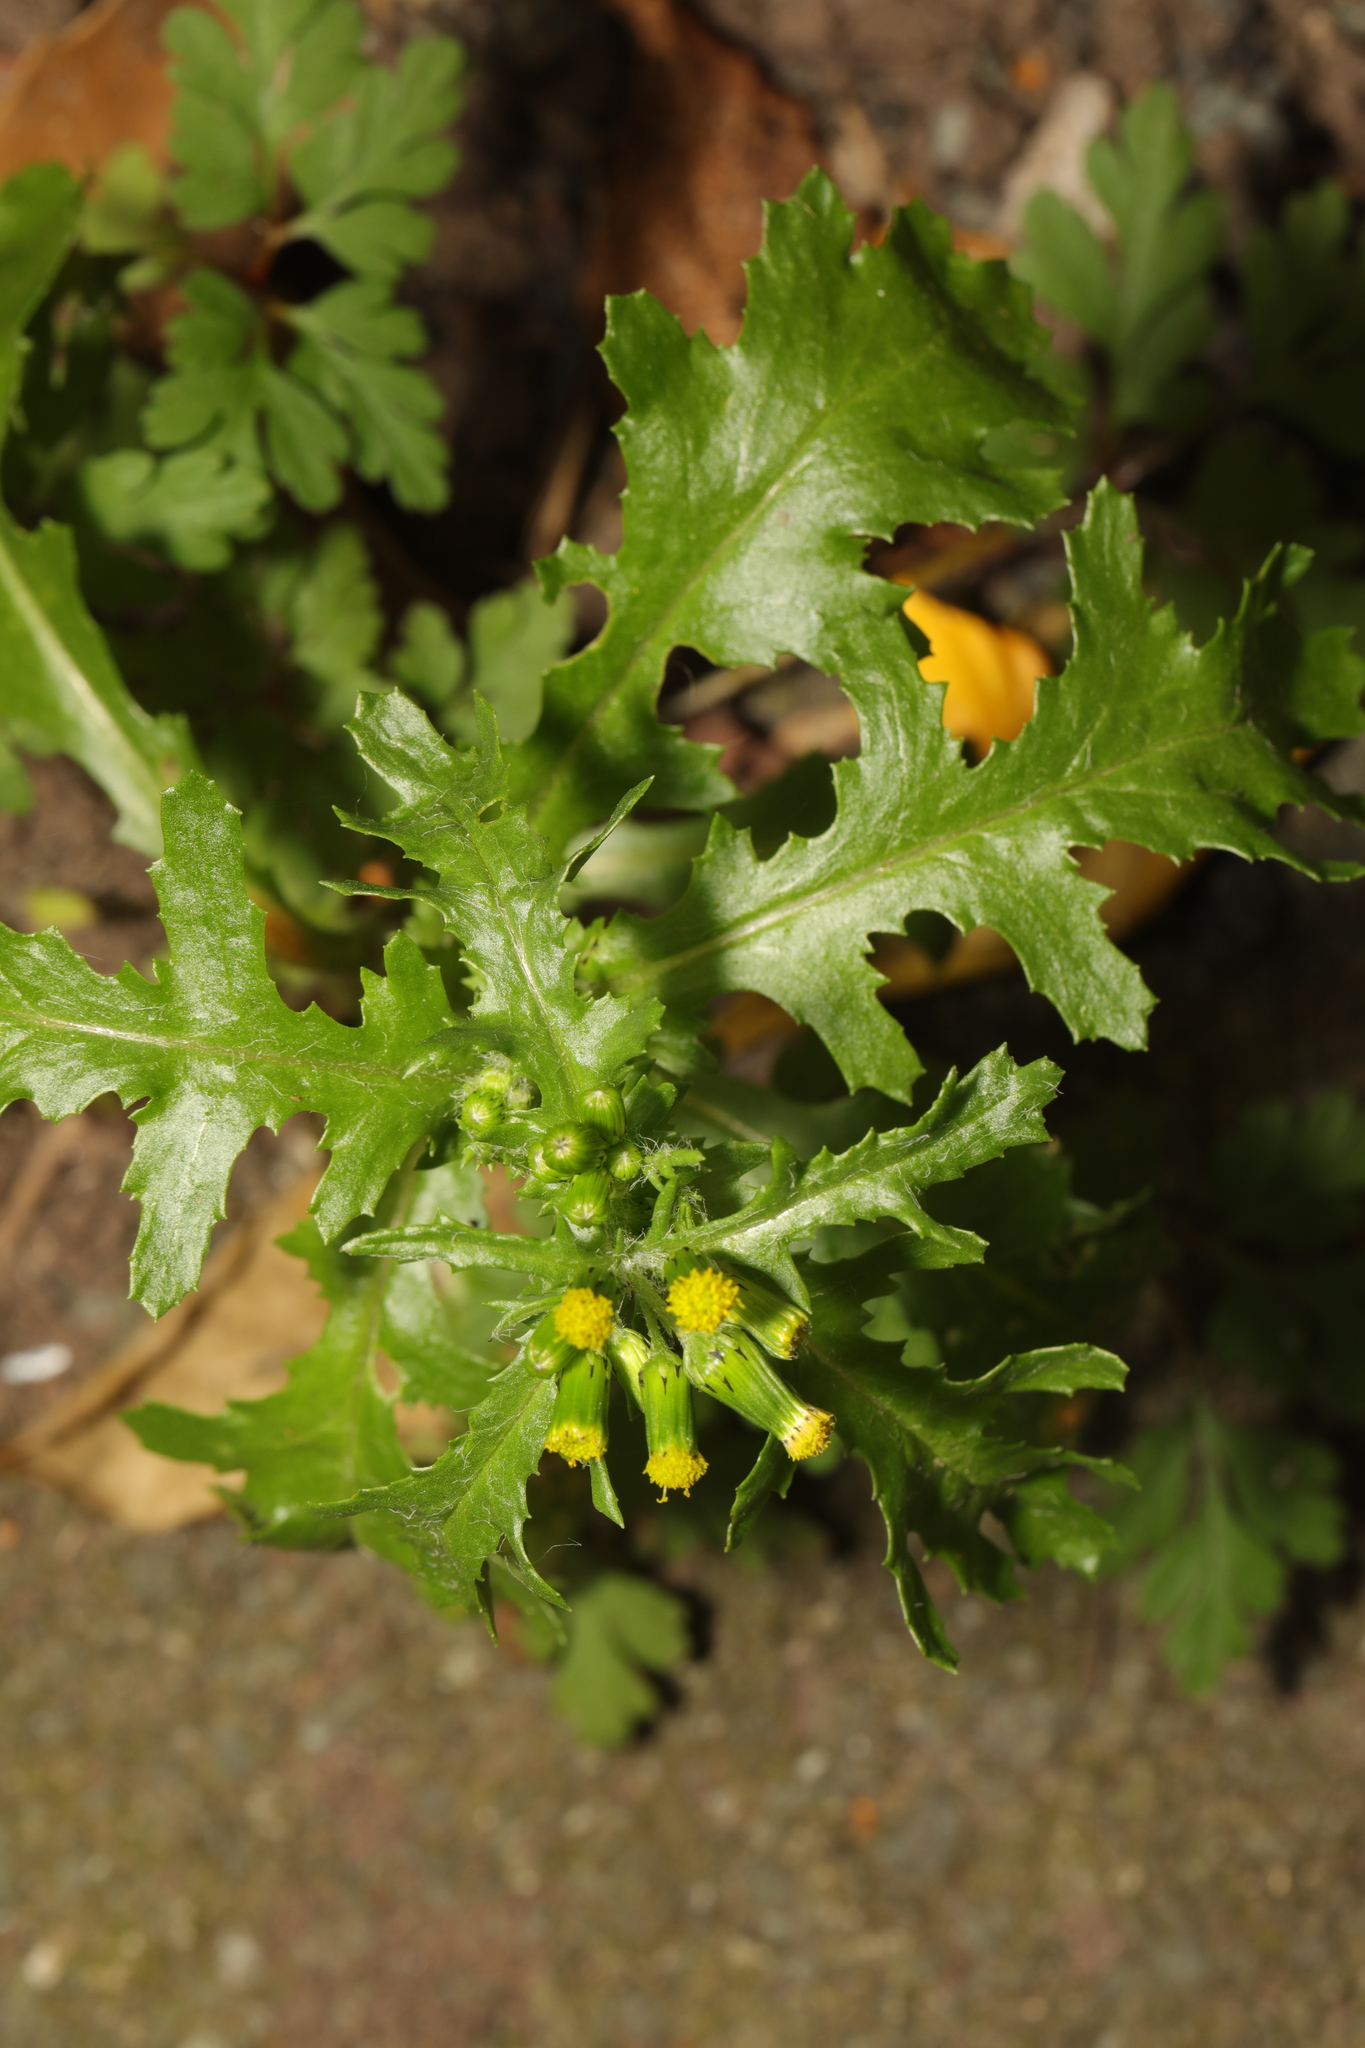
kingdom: Plantae
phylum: Tracheophyta
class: Magnoliopsida
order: Asterales
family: Asteraceae
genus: Senecio
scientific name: Senecio vulgaris
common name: Old-man-in-the-spring
